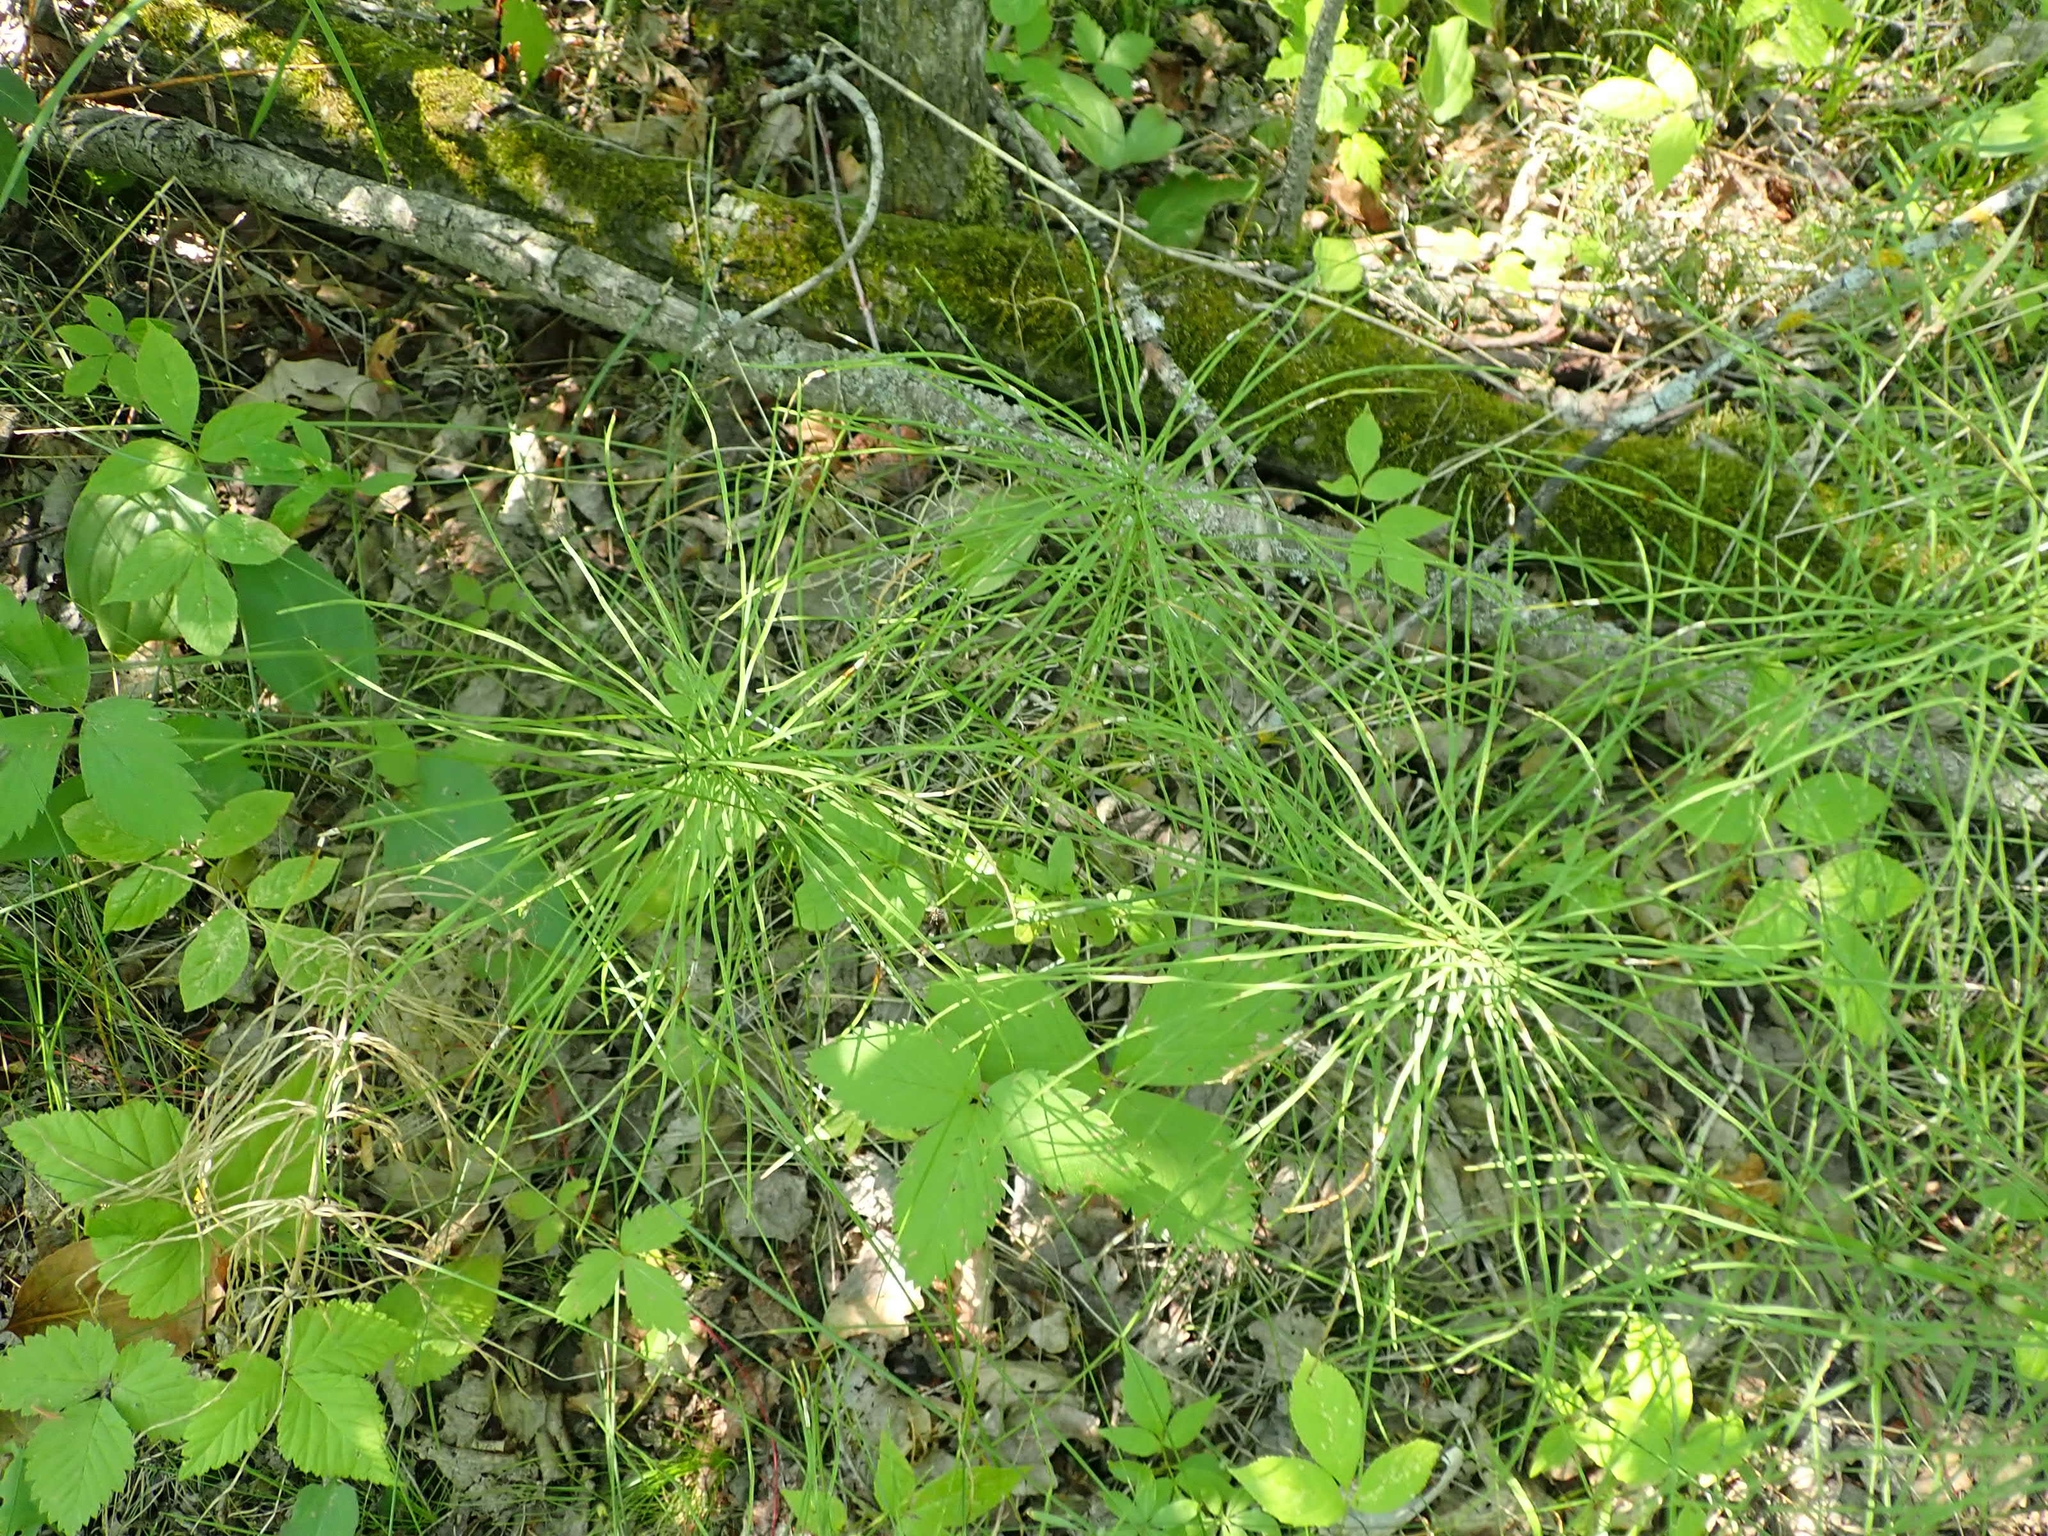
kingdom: Plantae
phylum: Tracheophyta
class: Polypodiopsida
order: Equisetales
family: Equisetaceae
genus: Equisetum
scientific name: Equisetum arvense
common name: Field horsetail
